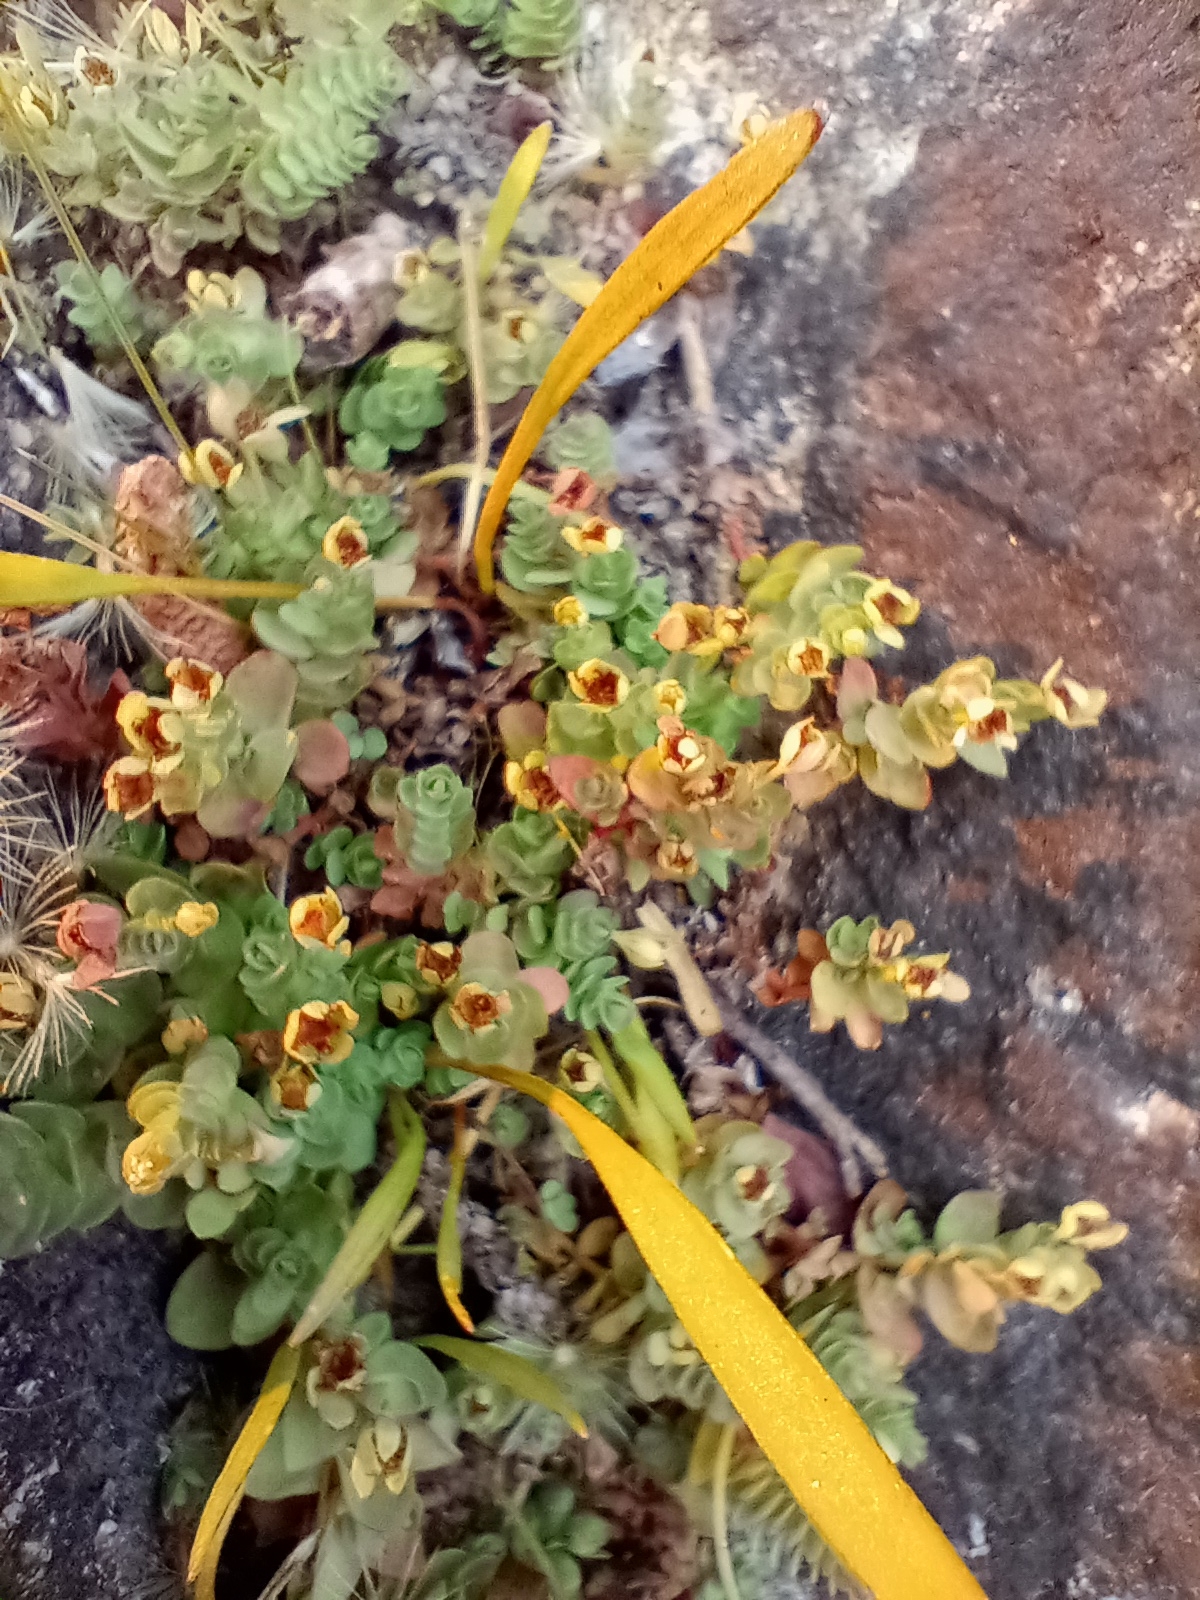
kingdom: Plantae
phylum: Tracheophyta
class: Magnoliopsida
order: Malpighiales
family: Hypericaceae
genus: Hypericum
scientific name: Hypericum anagalloides
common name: Bog st. john's-wort
